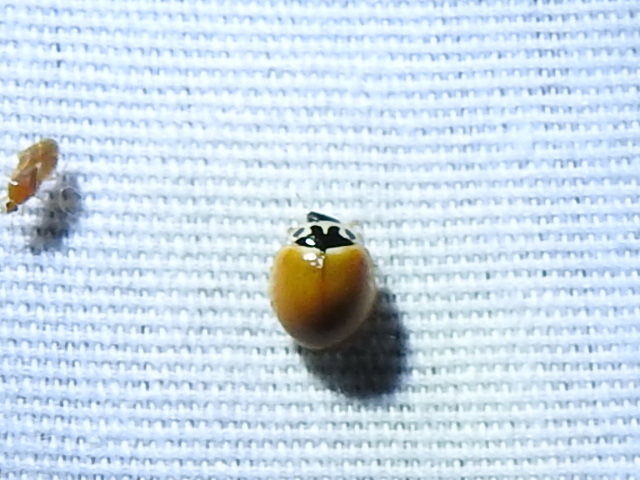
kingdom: Animalia
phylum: Arthropoda
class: Insecta
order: Coleoptera
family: Coccinellidae
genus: Cycloneda
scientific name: Cycloneda munda
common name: Polished lady beetle
